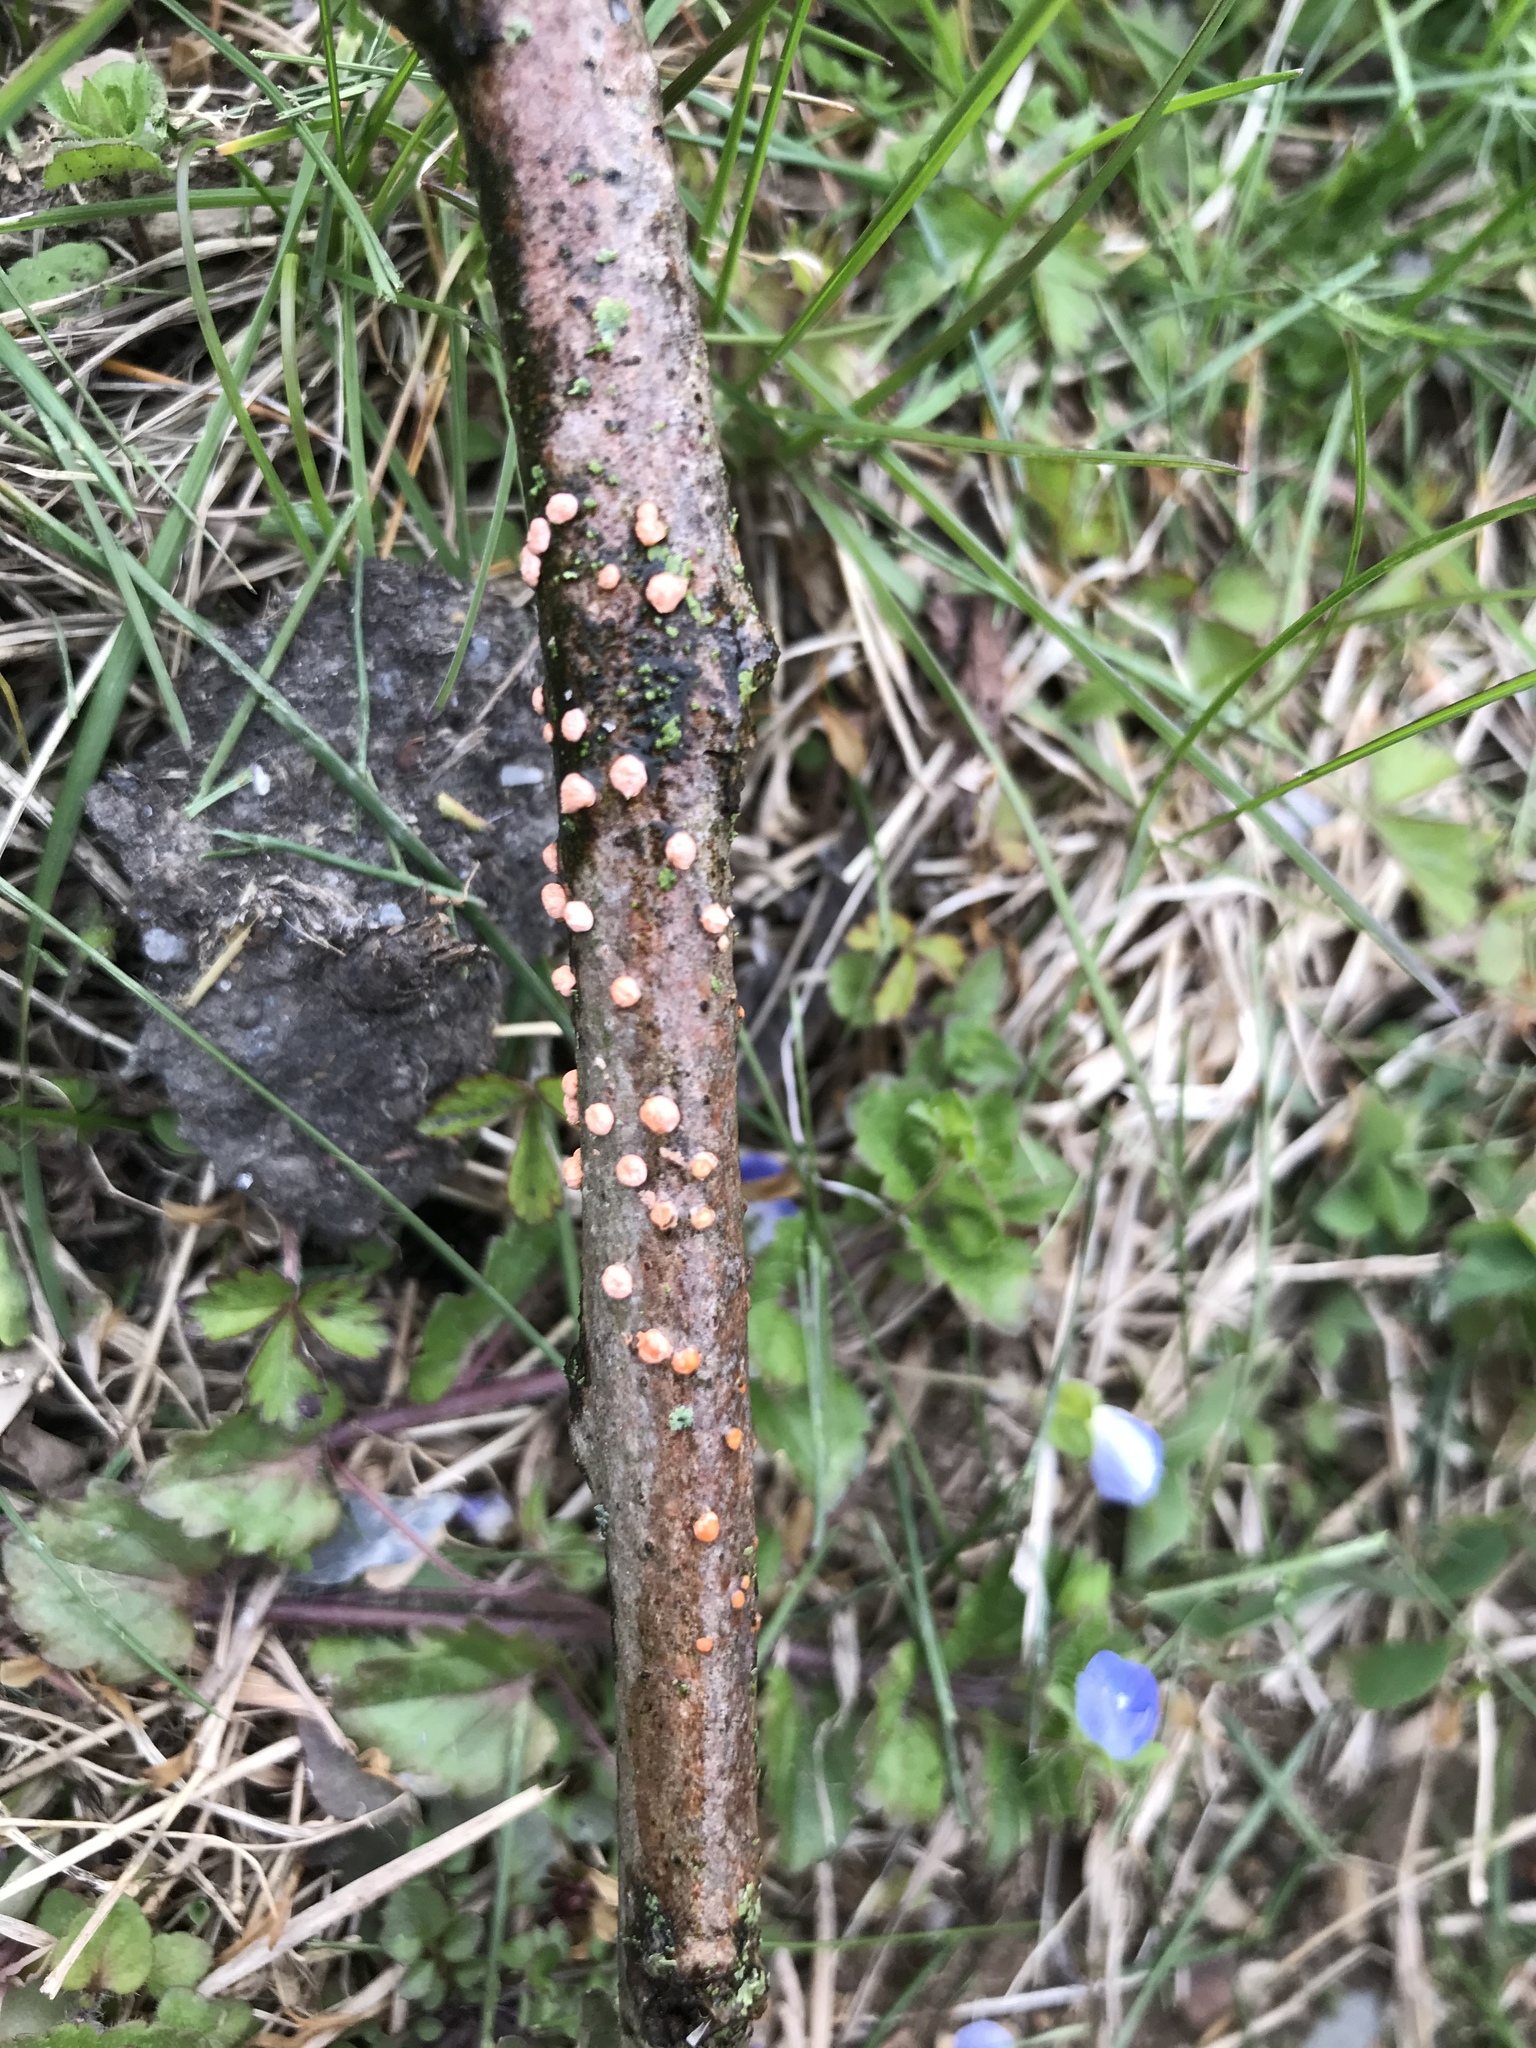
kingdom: Fungi
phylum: Ascomycota
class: Sordariomycetes
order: Hypocreales
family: Nectriaceae
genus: Nectria
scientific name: Nectria cinnabarina
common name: Coral spot
